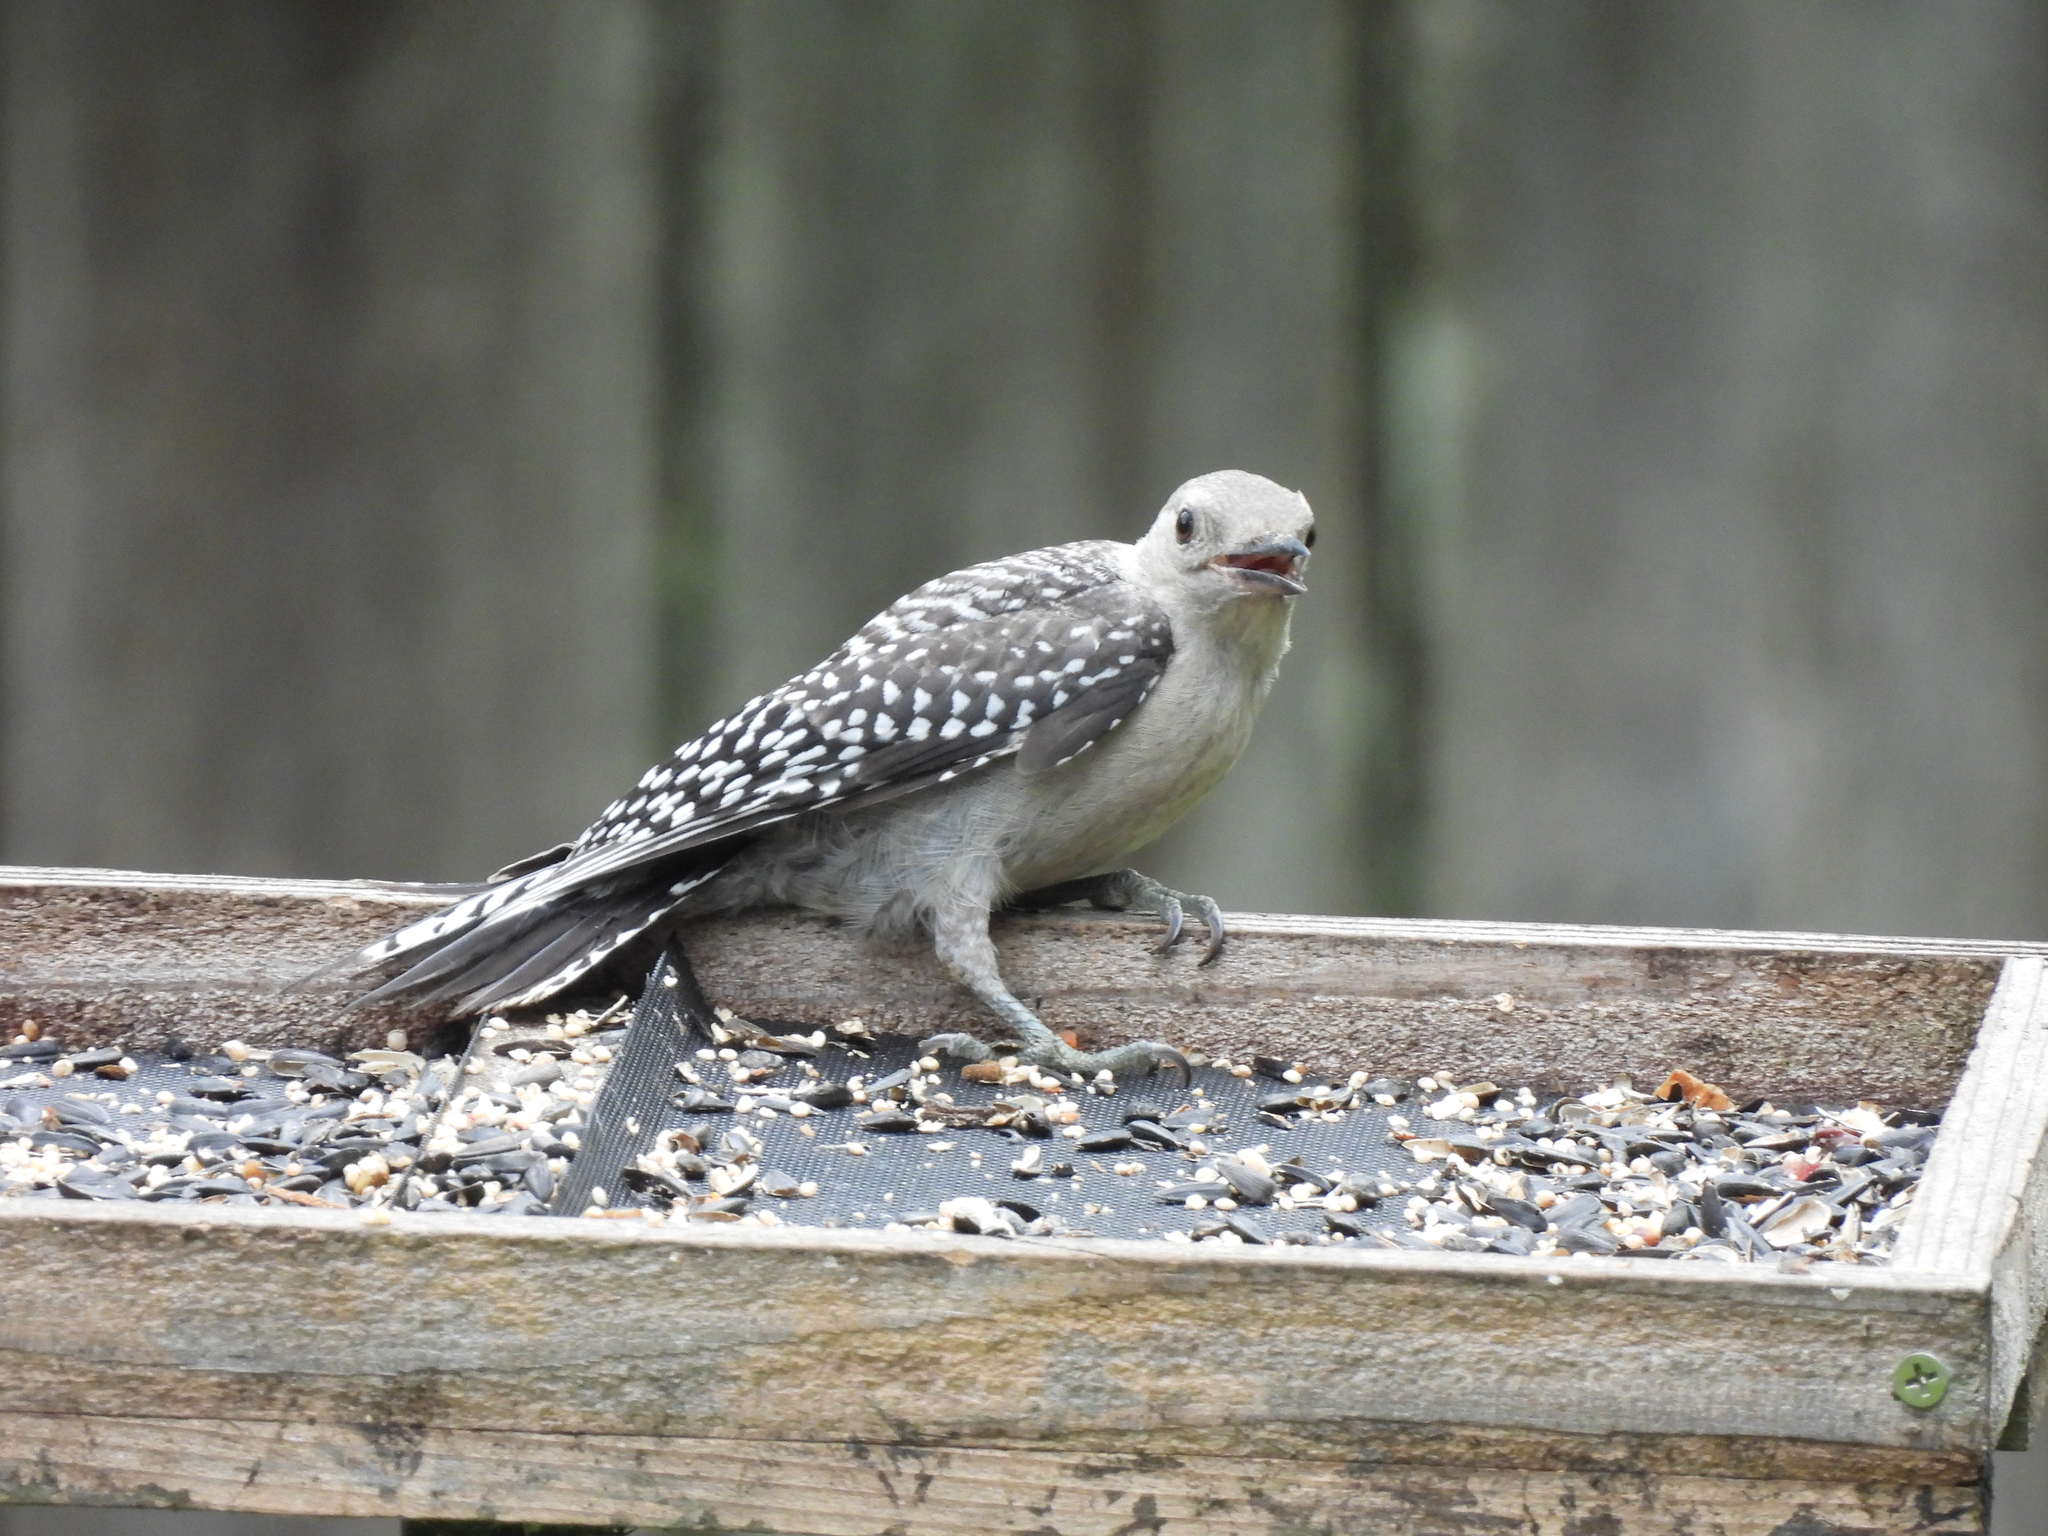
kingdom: Animalia
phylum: Chordata
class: Aves
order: Piciformes
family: Picidae
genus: Melanerpes
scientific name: Melanerpes carolinus
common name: Red-bellied woodpecker
